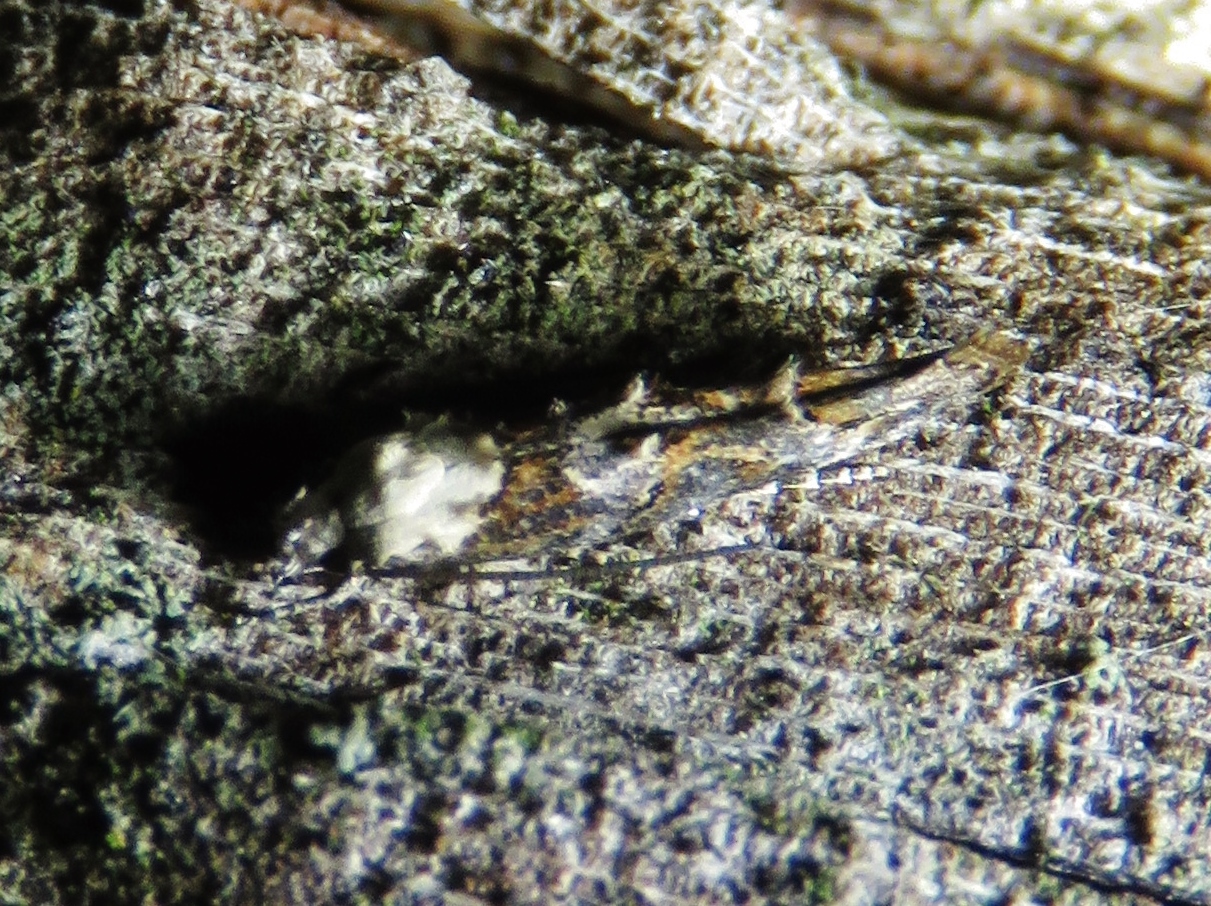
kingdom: Animalia
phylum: Arthropoda
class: Insecta
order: Lepidoptera
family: Momphidae
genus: Mompha
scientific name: Mompha albocapitella
